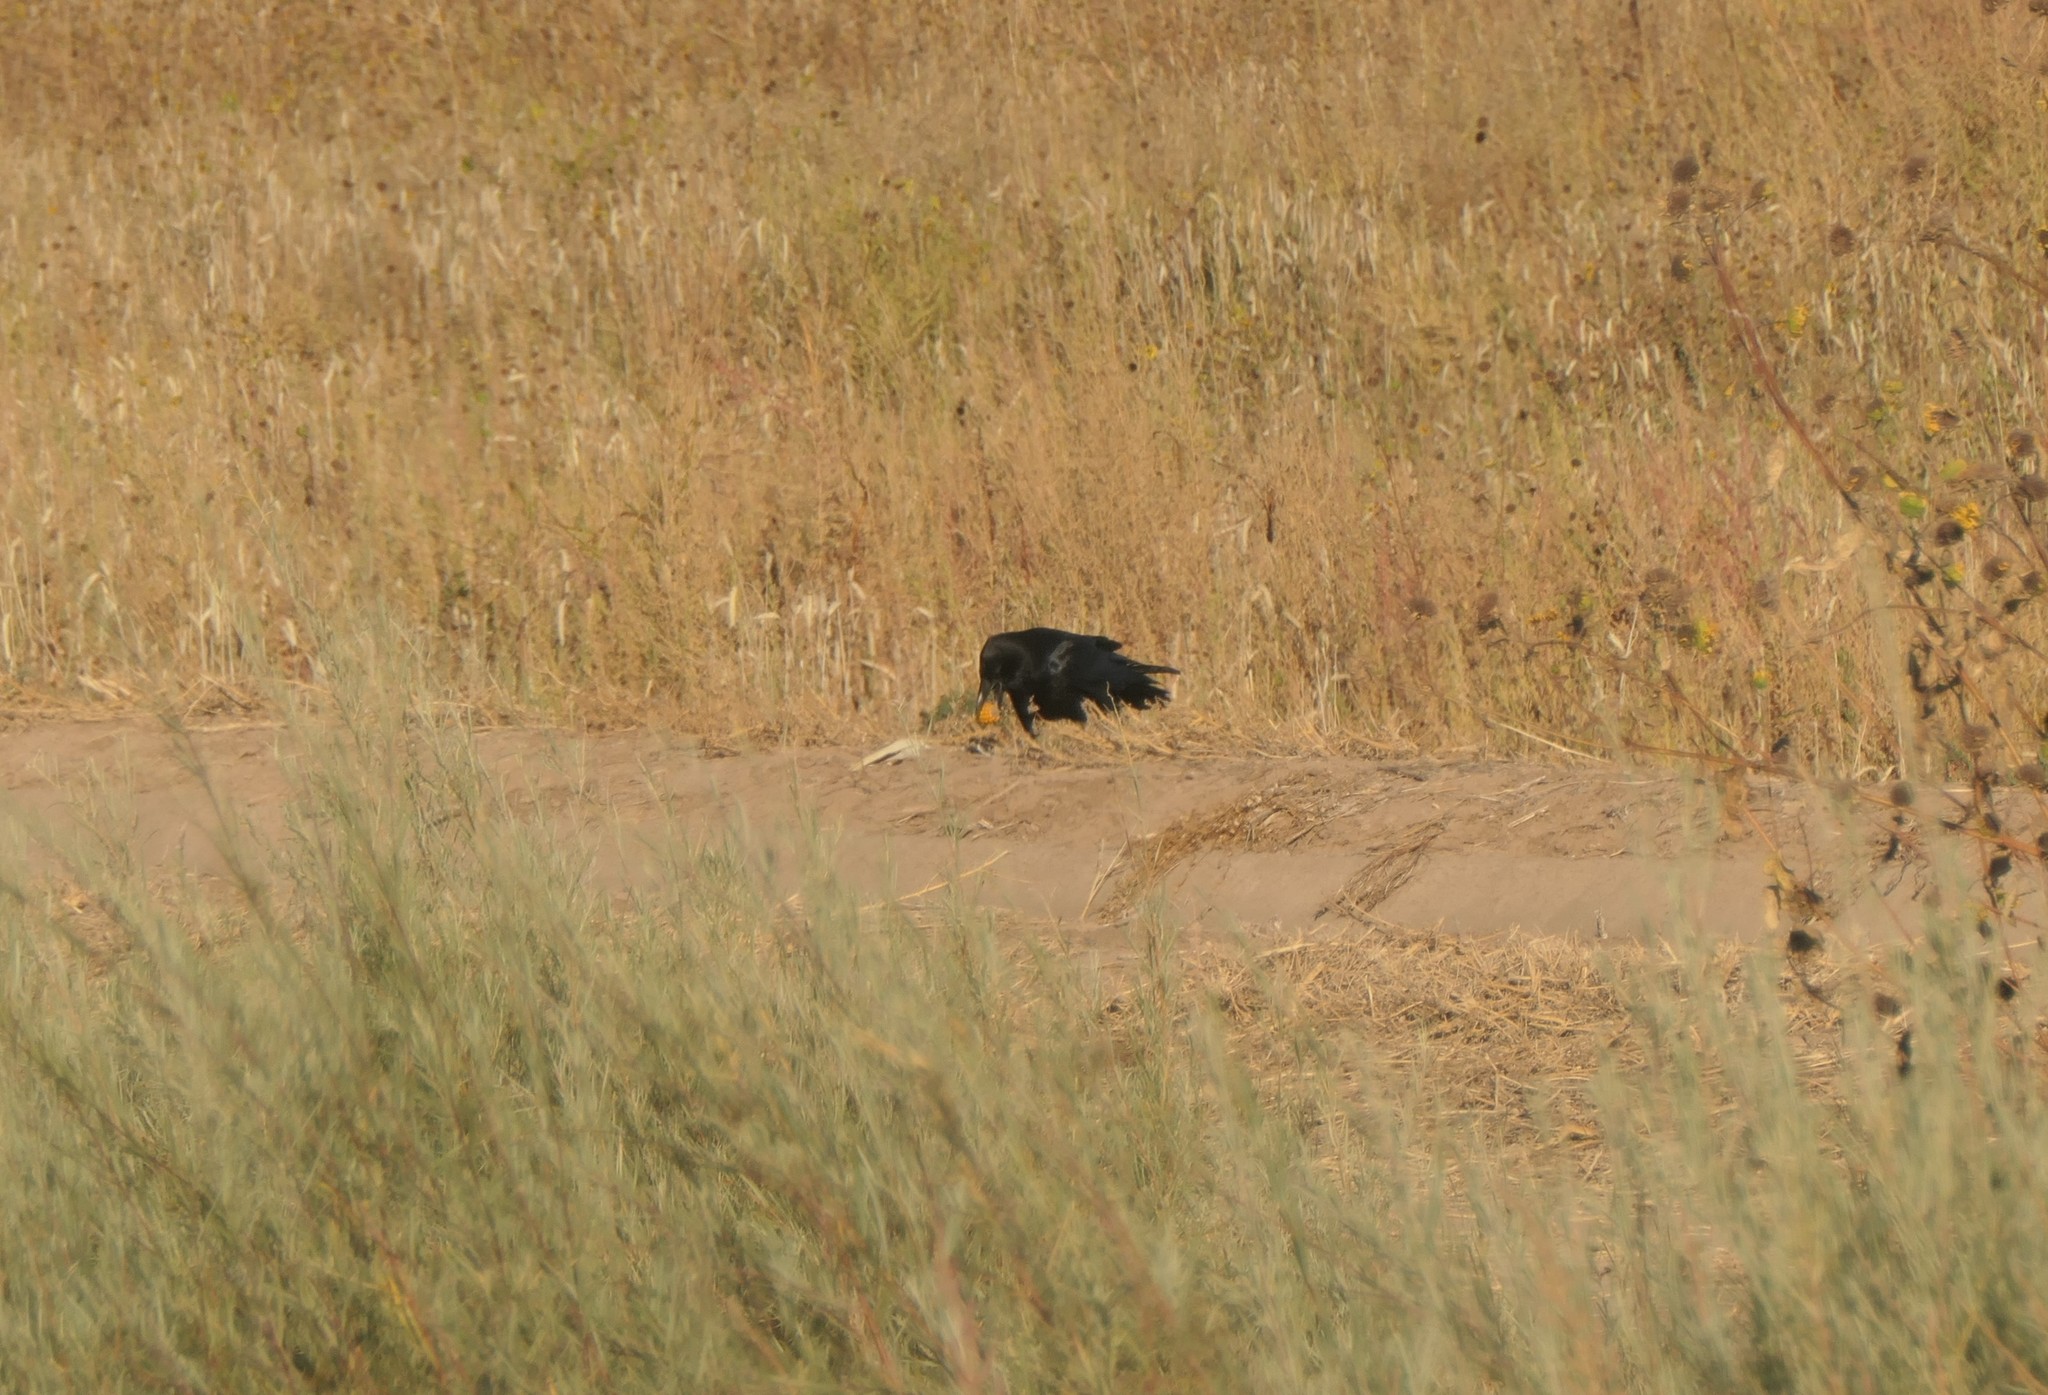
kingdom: Animalia
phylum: Chordata
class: Aves
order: Passeriformes
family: Corvidae
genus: Corvus
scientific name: Corvus corax
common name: Common raven
